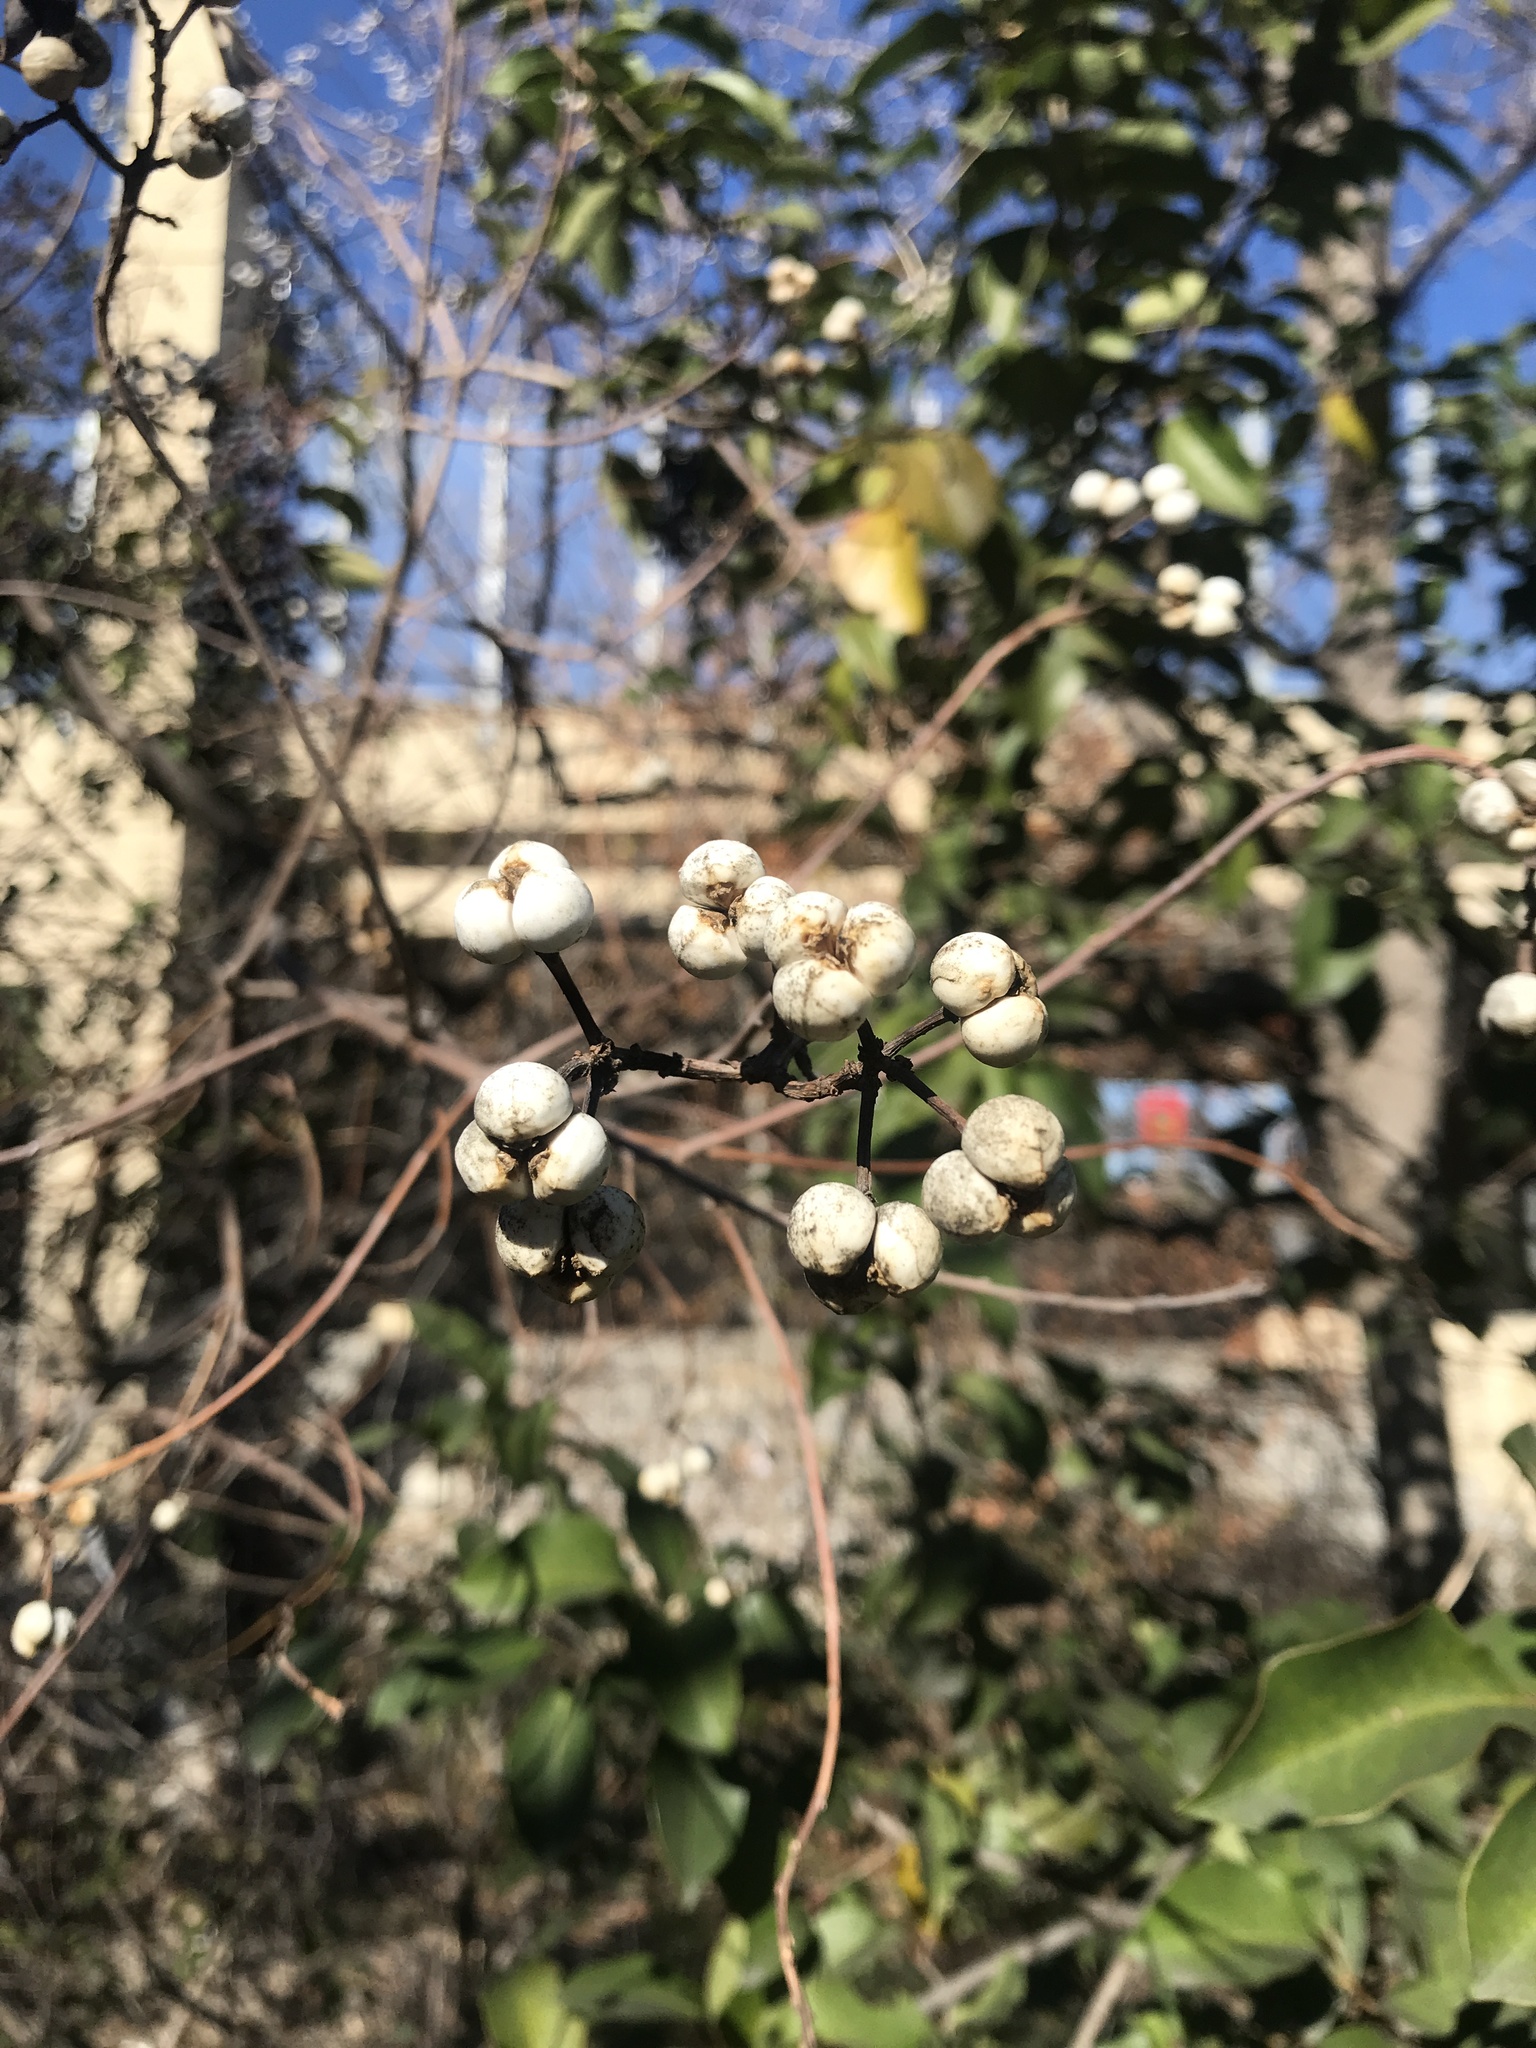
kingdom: Plantae
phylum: Tracheophyta
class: Magnoliopsida
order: Malpighiales
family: Euphorbiaceae
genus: Triadica
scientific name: Triadica sebifera
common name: Chinese tallow
